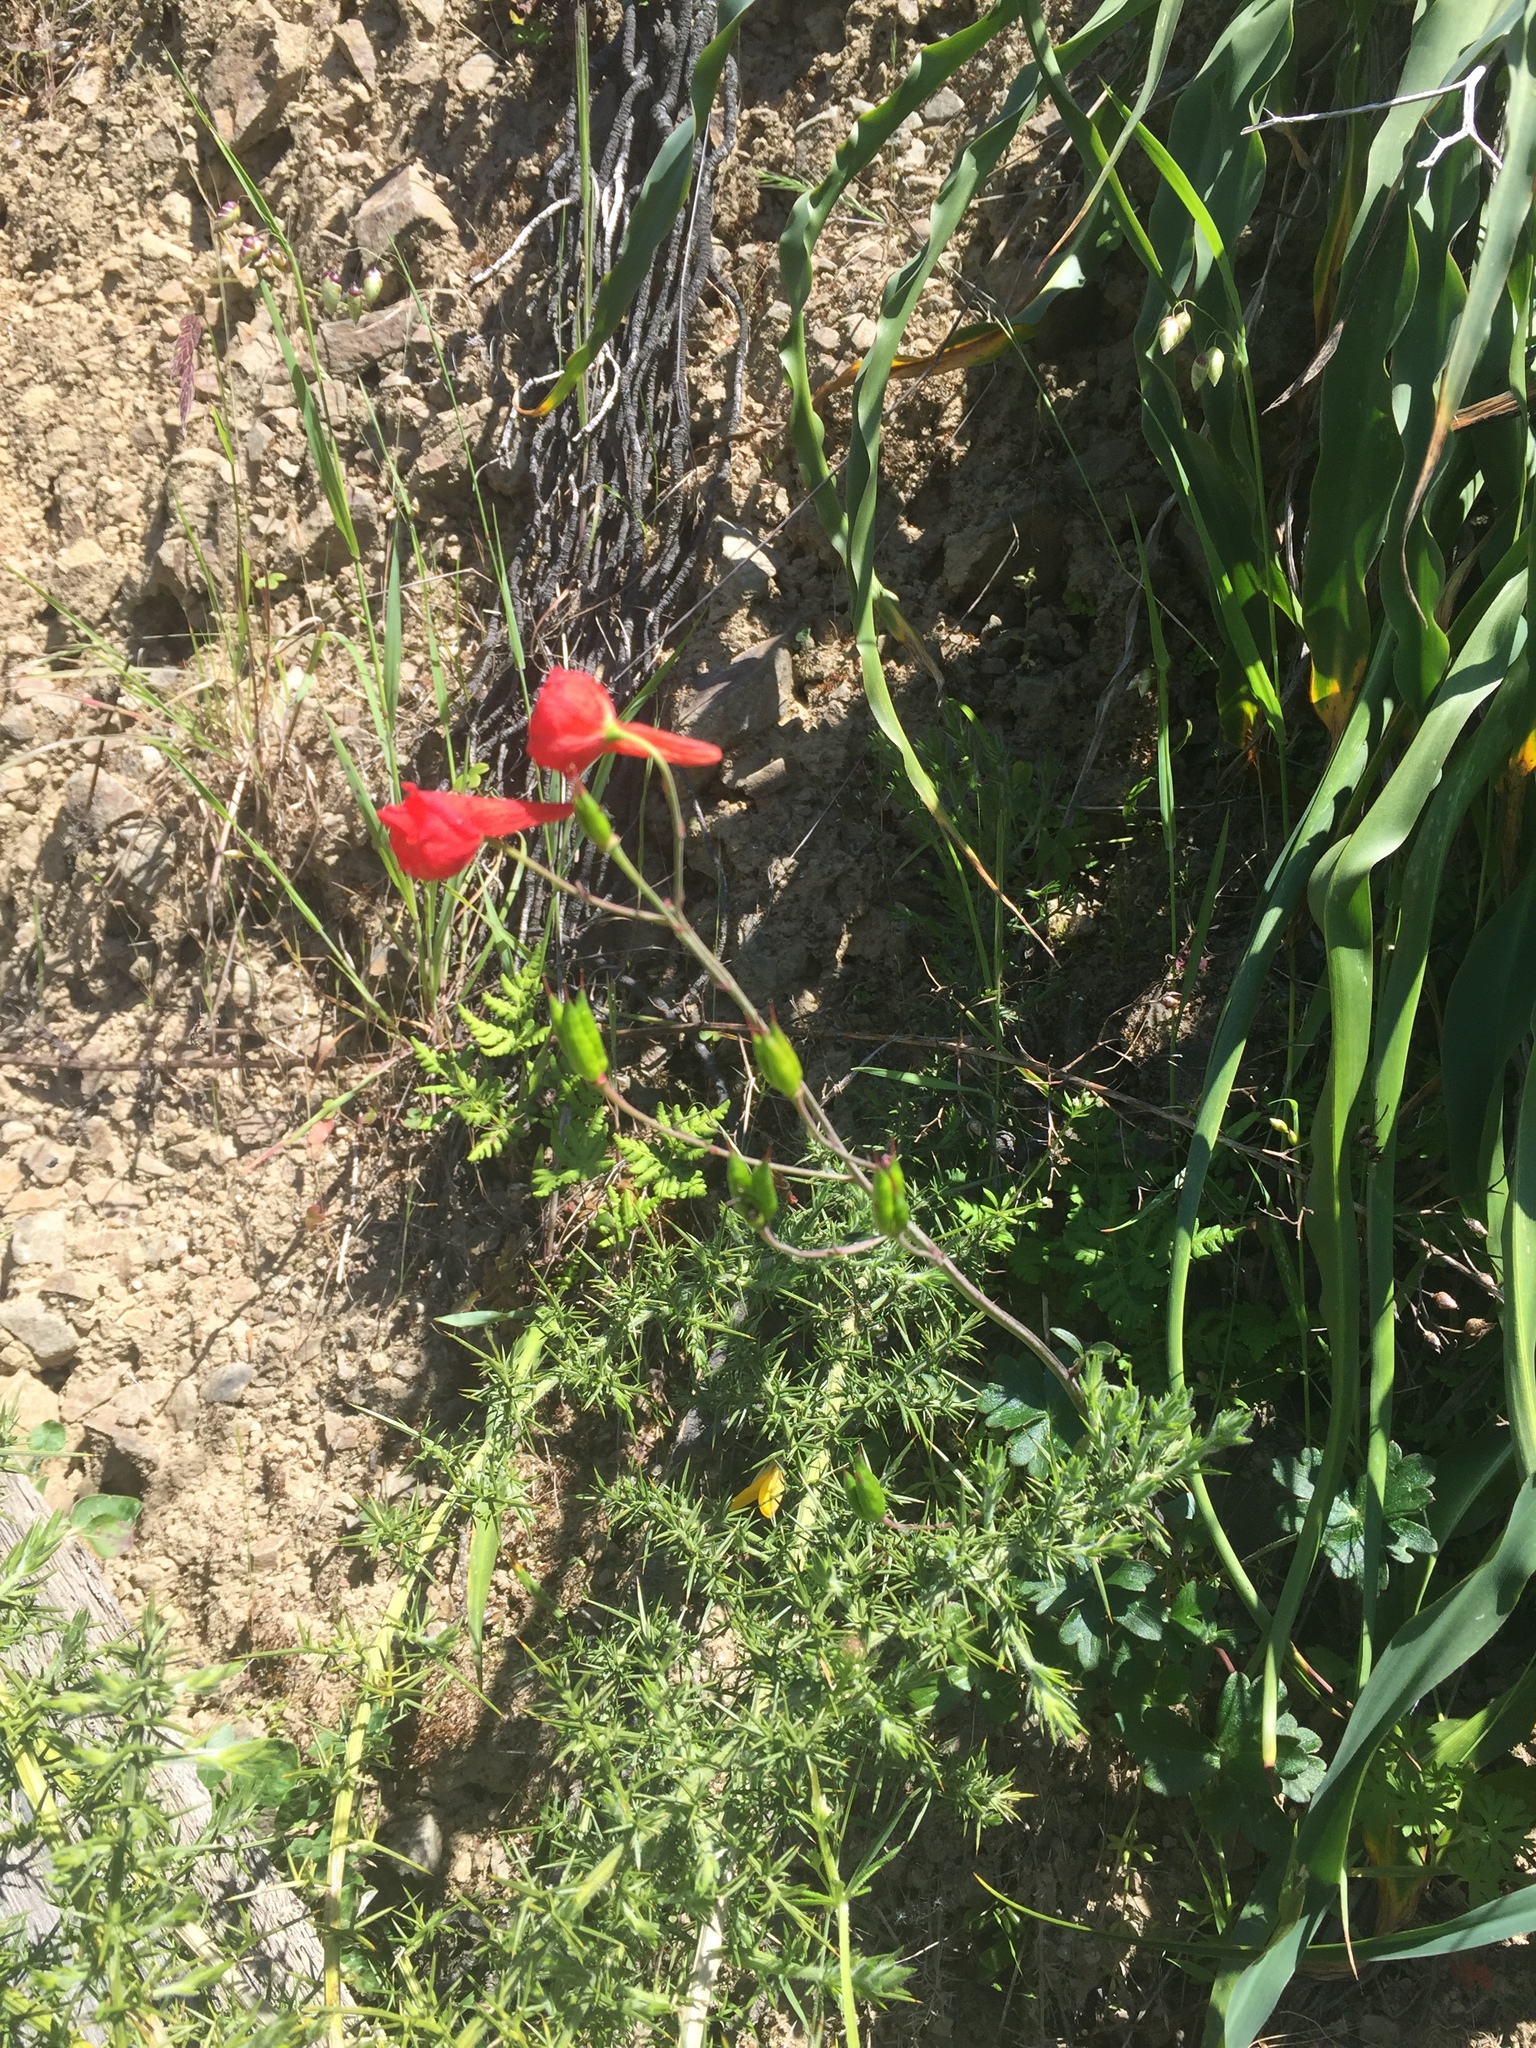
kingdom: Plantae
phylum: Tracheophyta
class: Magnoliopsida
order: Ranunculales
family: Ranunculaceae
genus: Delphinium
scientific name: Delphinium nudicaule
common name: Red larkspur
